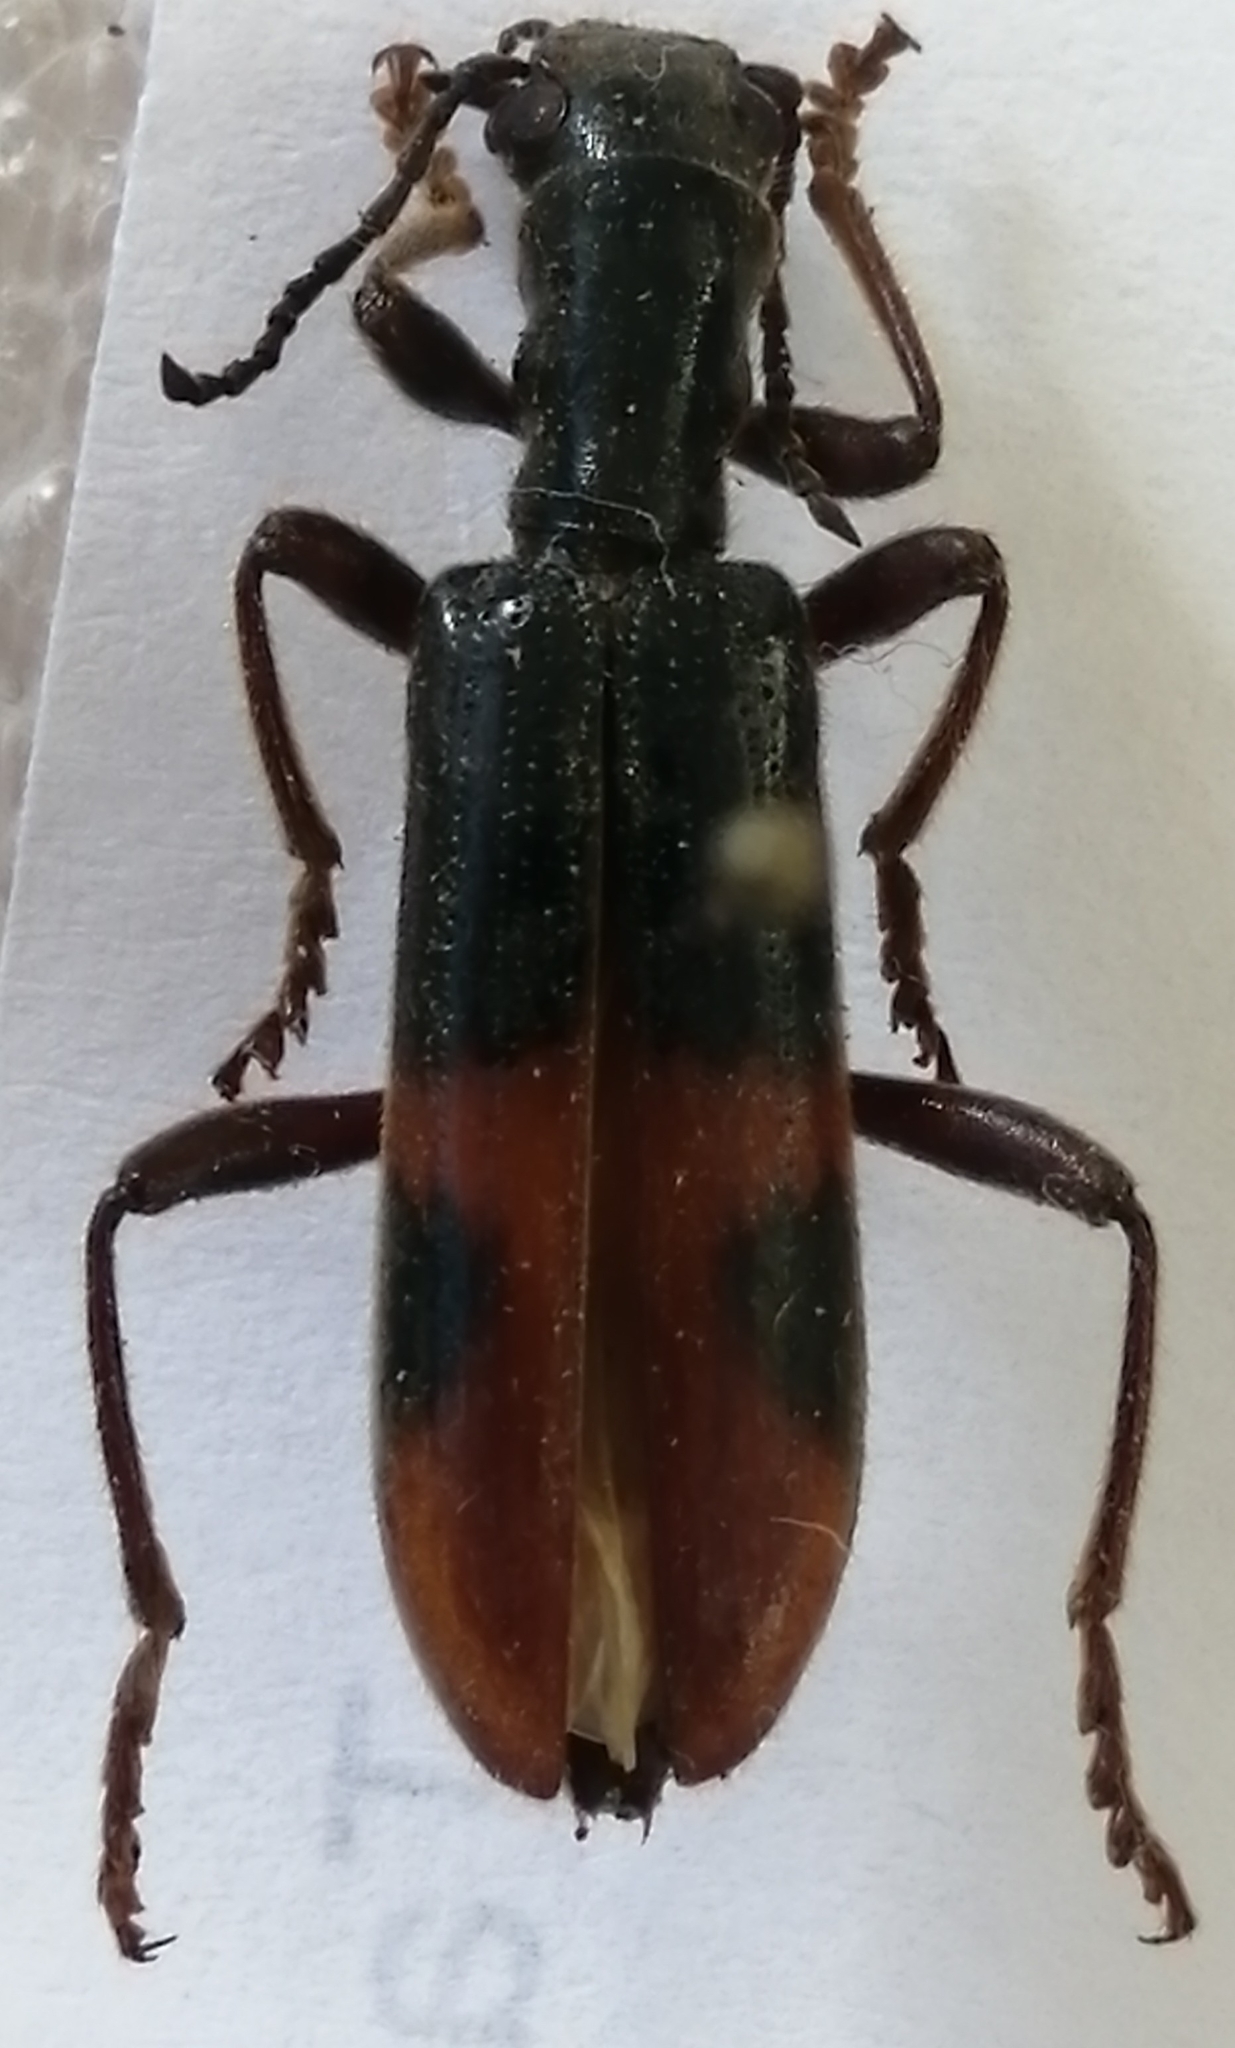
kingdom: Animalia
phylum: Arthropoda
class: Insecta
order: Coleoptera
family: Cleridae
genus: Cymatodera
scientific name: Cymatodera hopei
